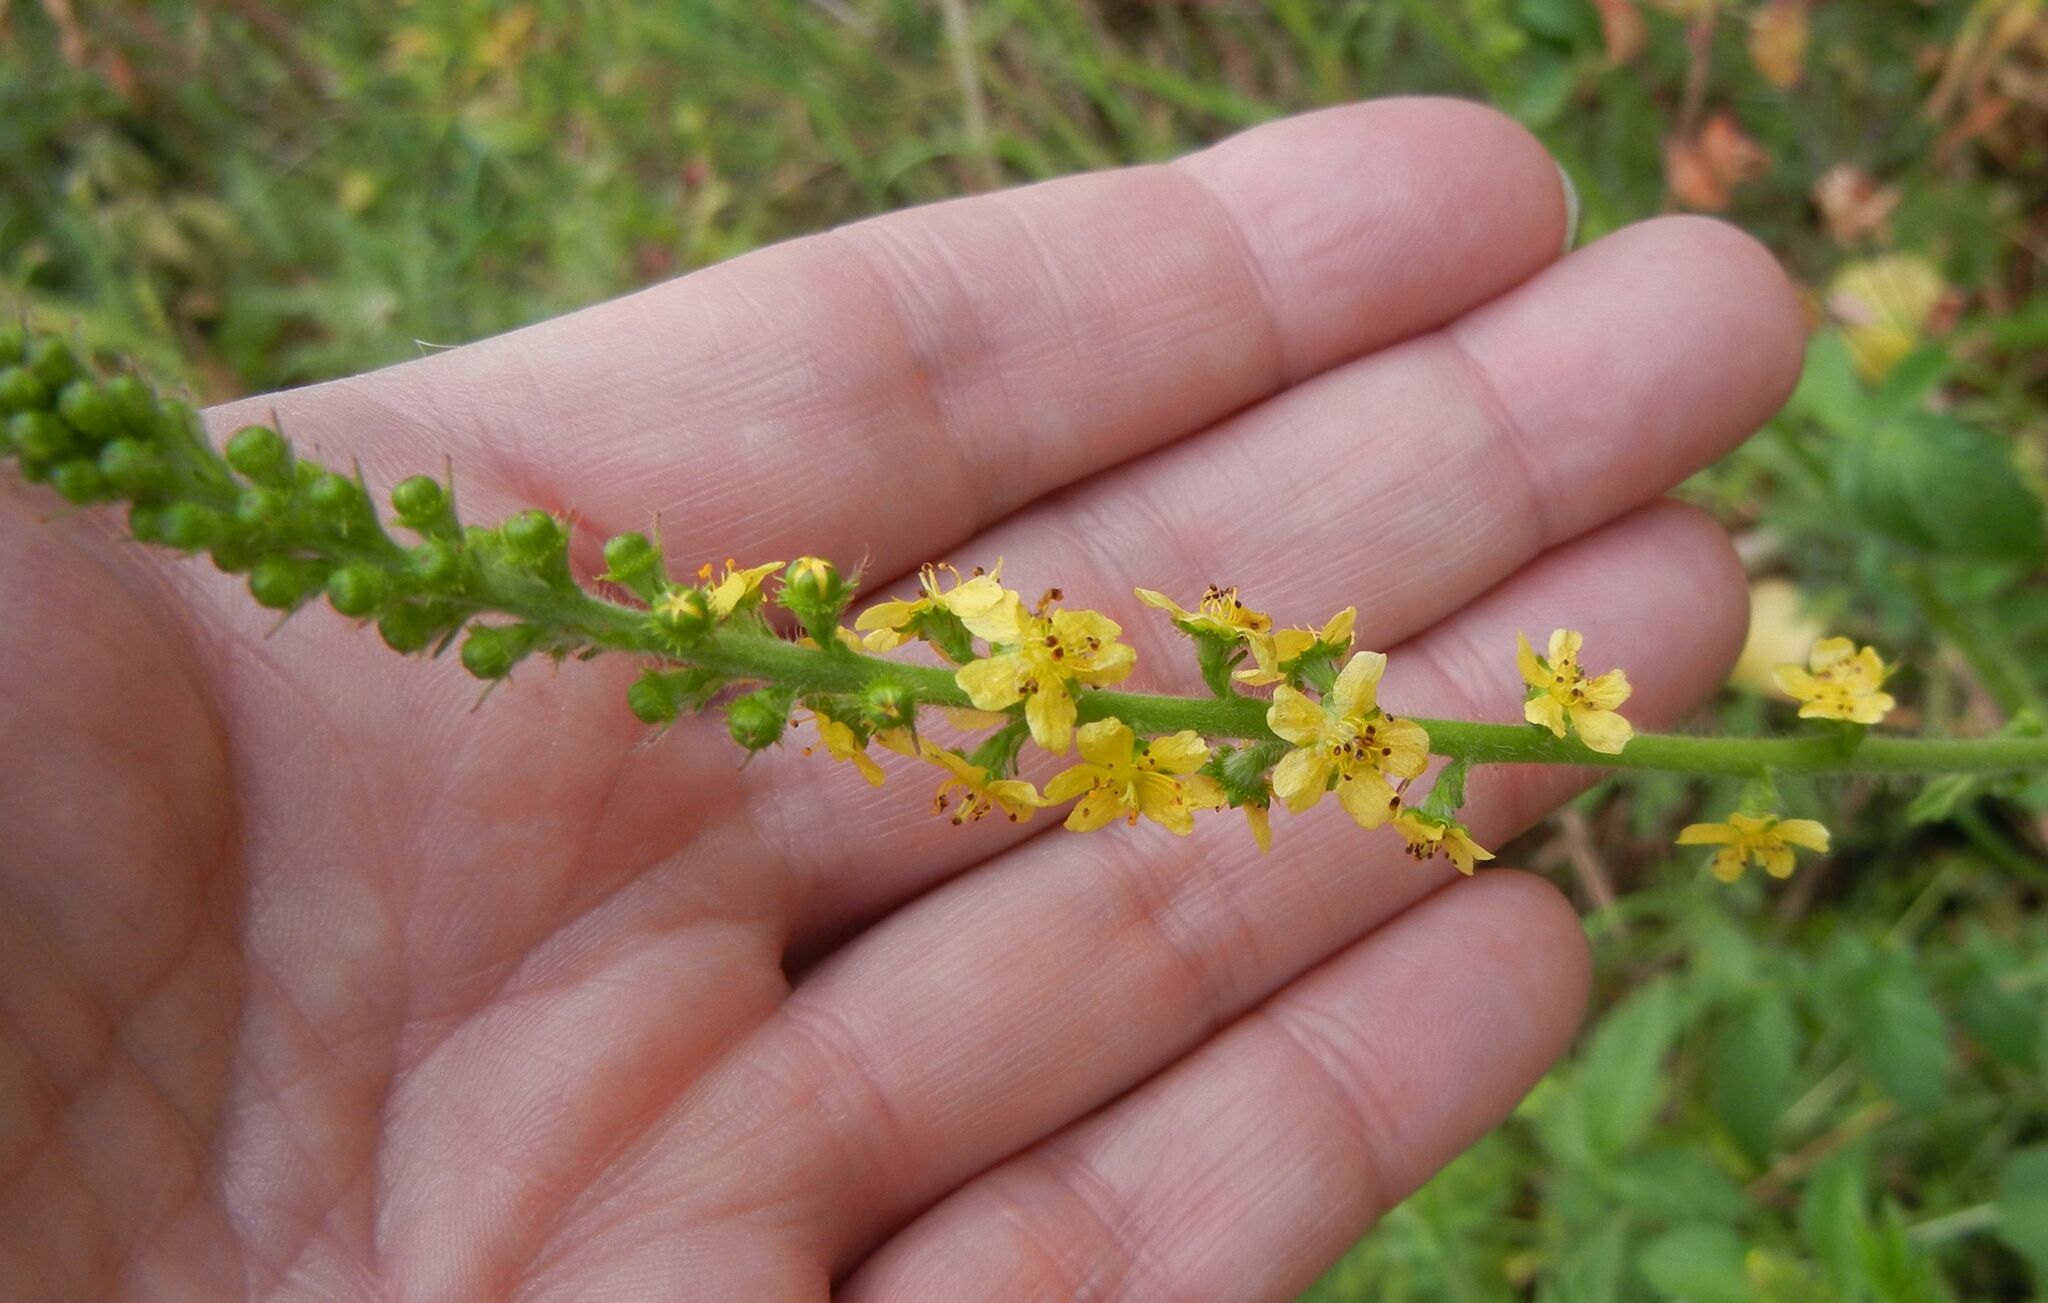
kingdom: Plantae
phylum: Tracheophyta
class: Magnoliopsida
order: Rosales
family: Rosaceae
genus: Agrimonia
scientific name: Agrimonia eupatoria
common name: Agrimony
